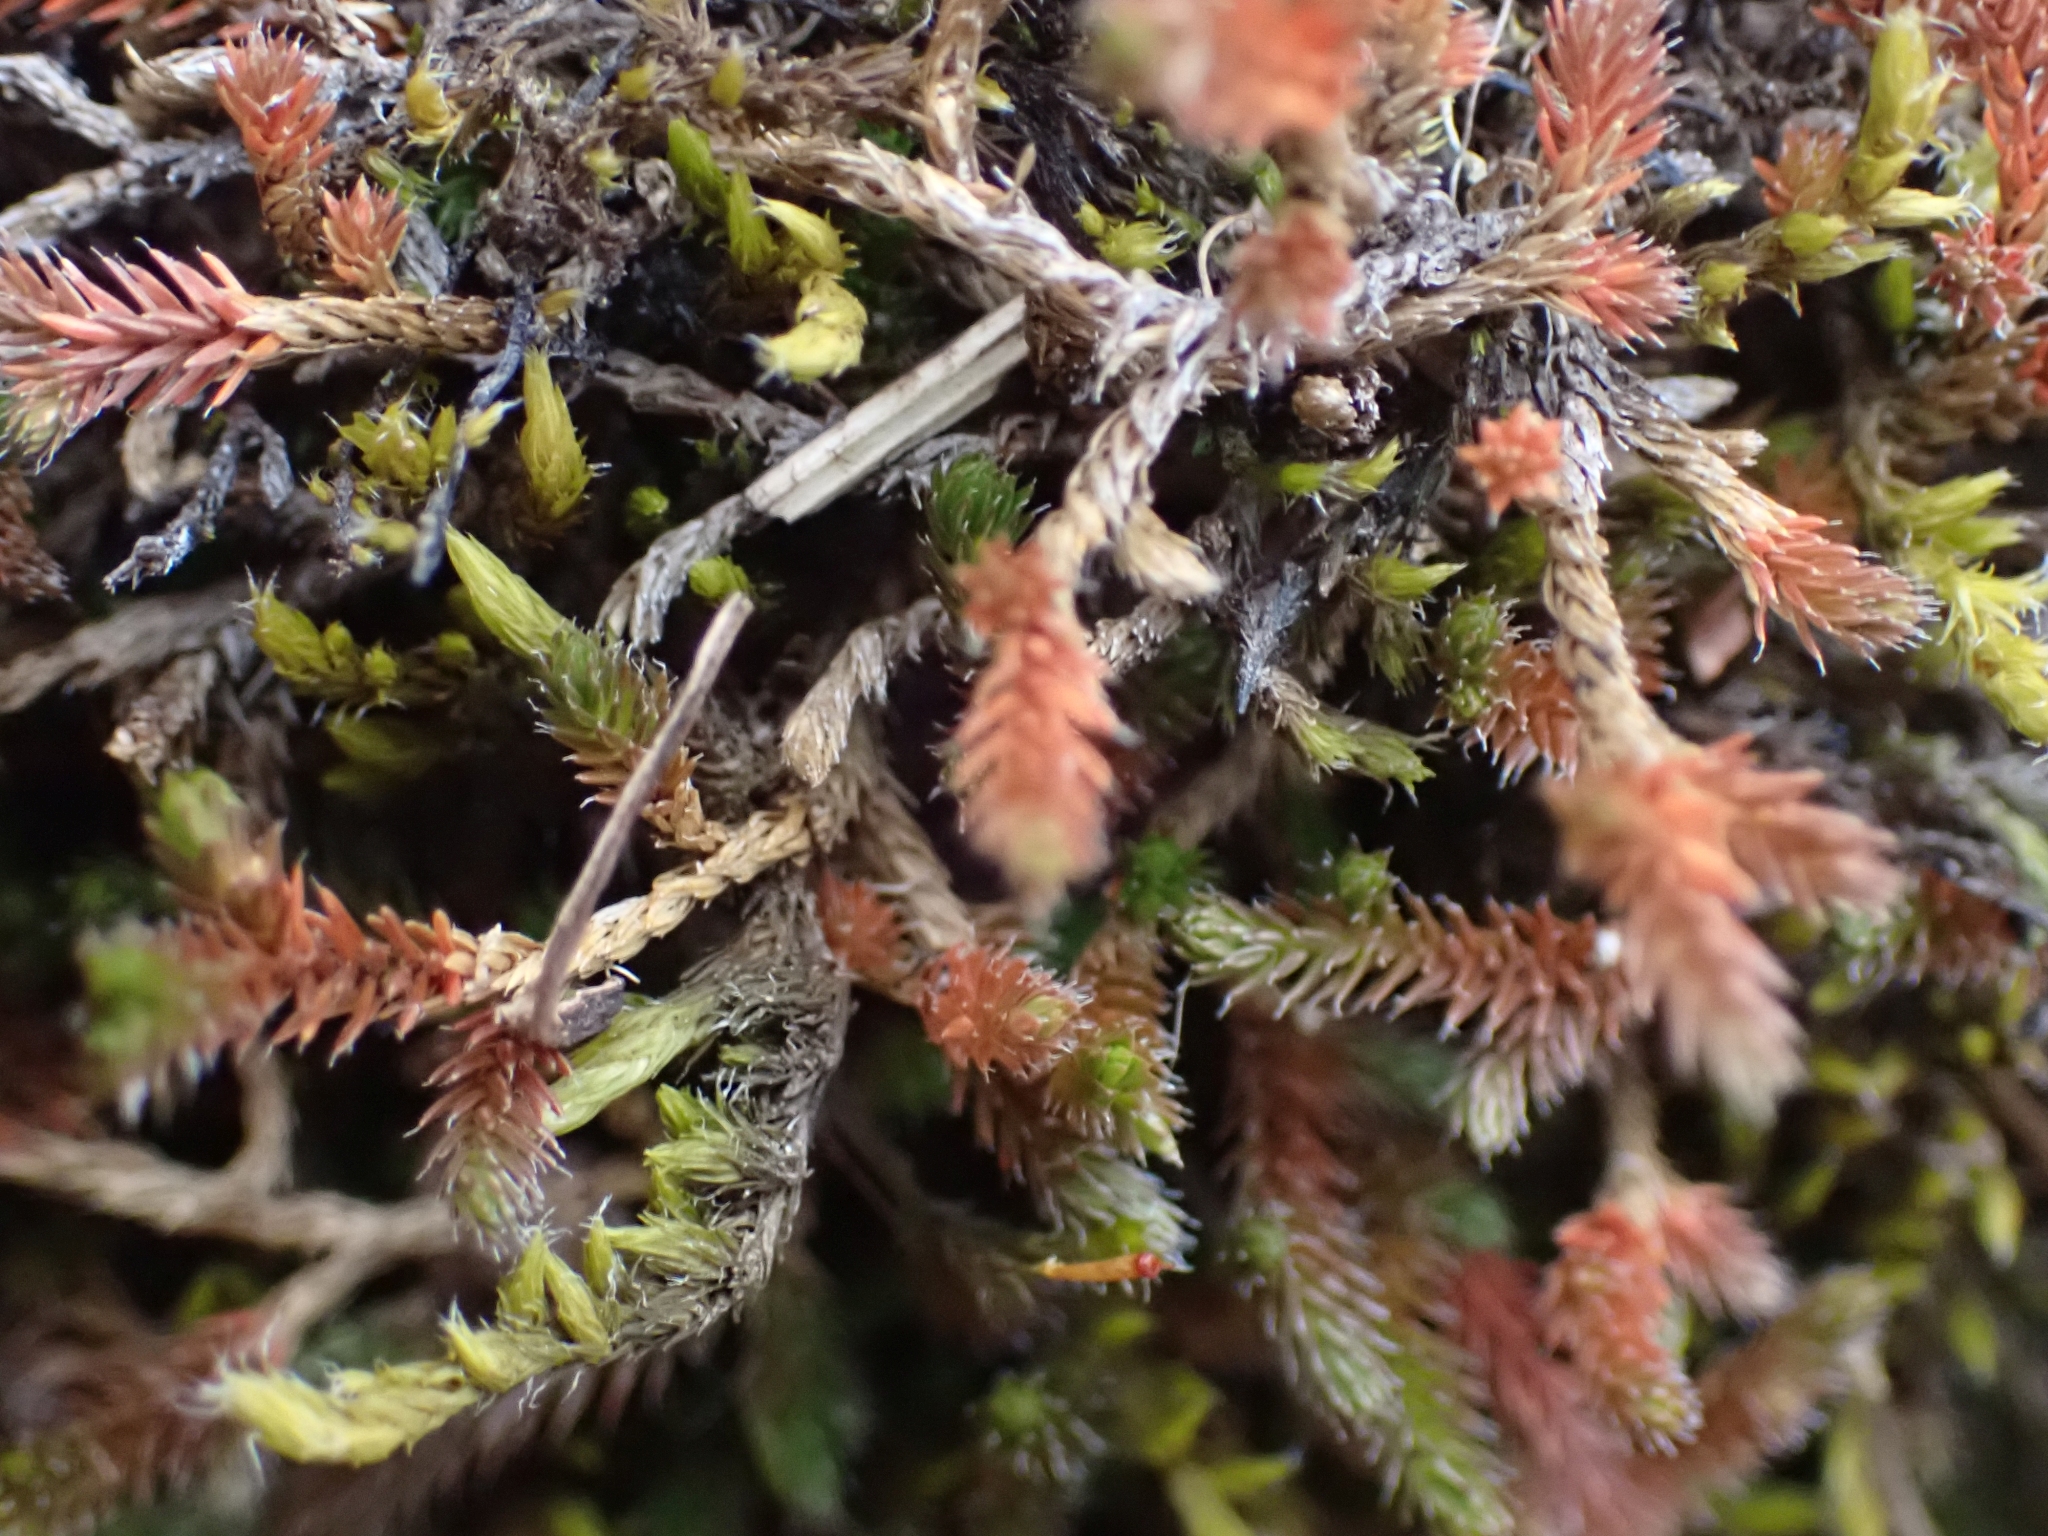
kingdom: Plantae
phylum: Tracheophyta
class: Lycopodiopsida
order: Selaginellales
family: Selaginellaceae
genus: Selaginella
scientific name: Selaginella wallacei
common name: Wallace's selaginella
